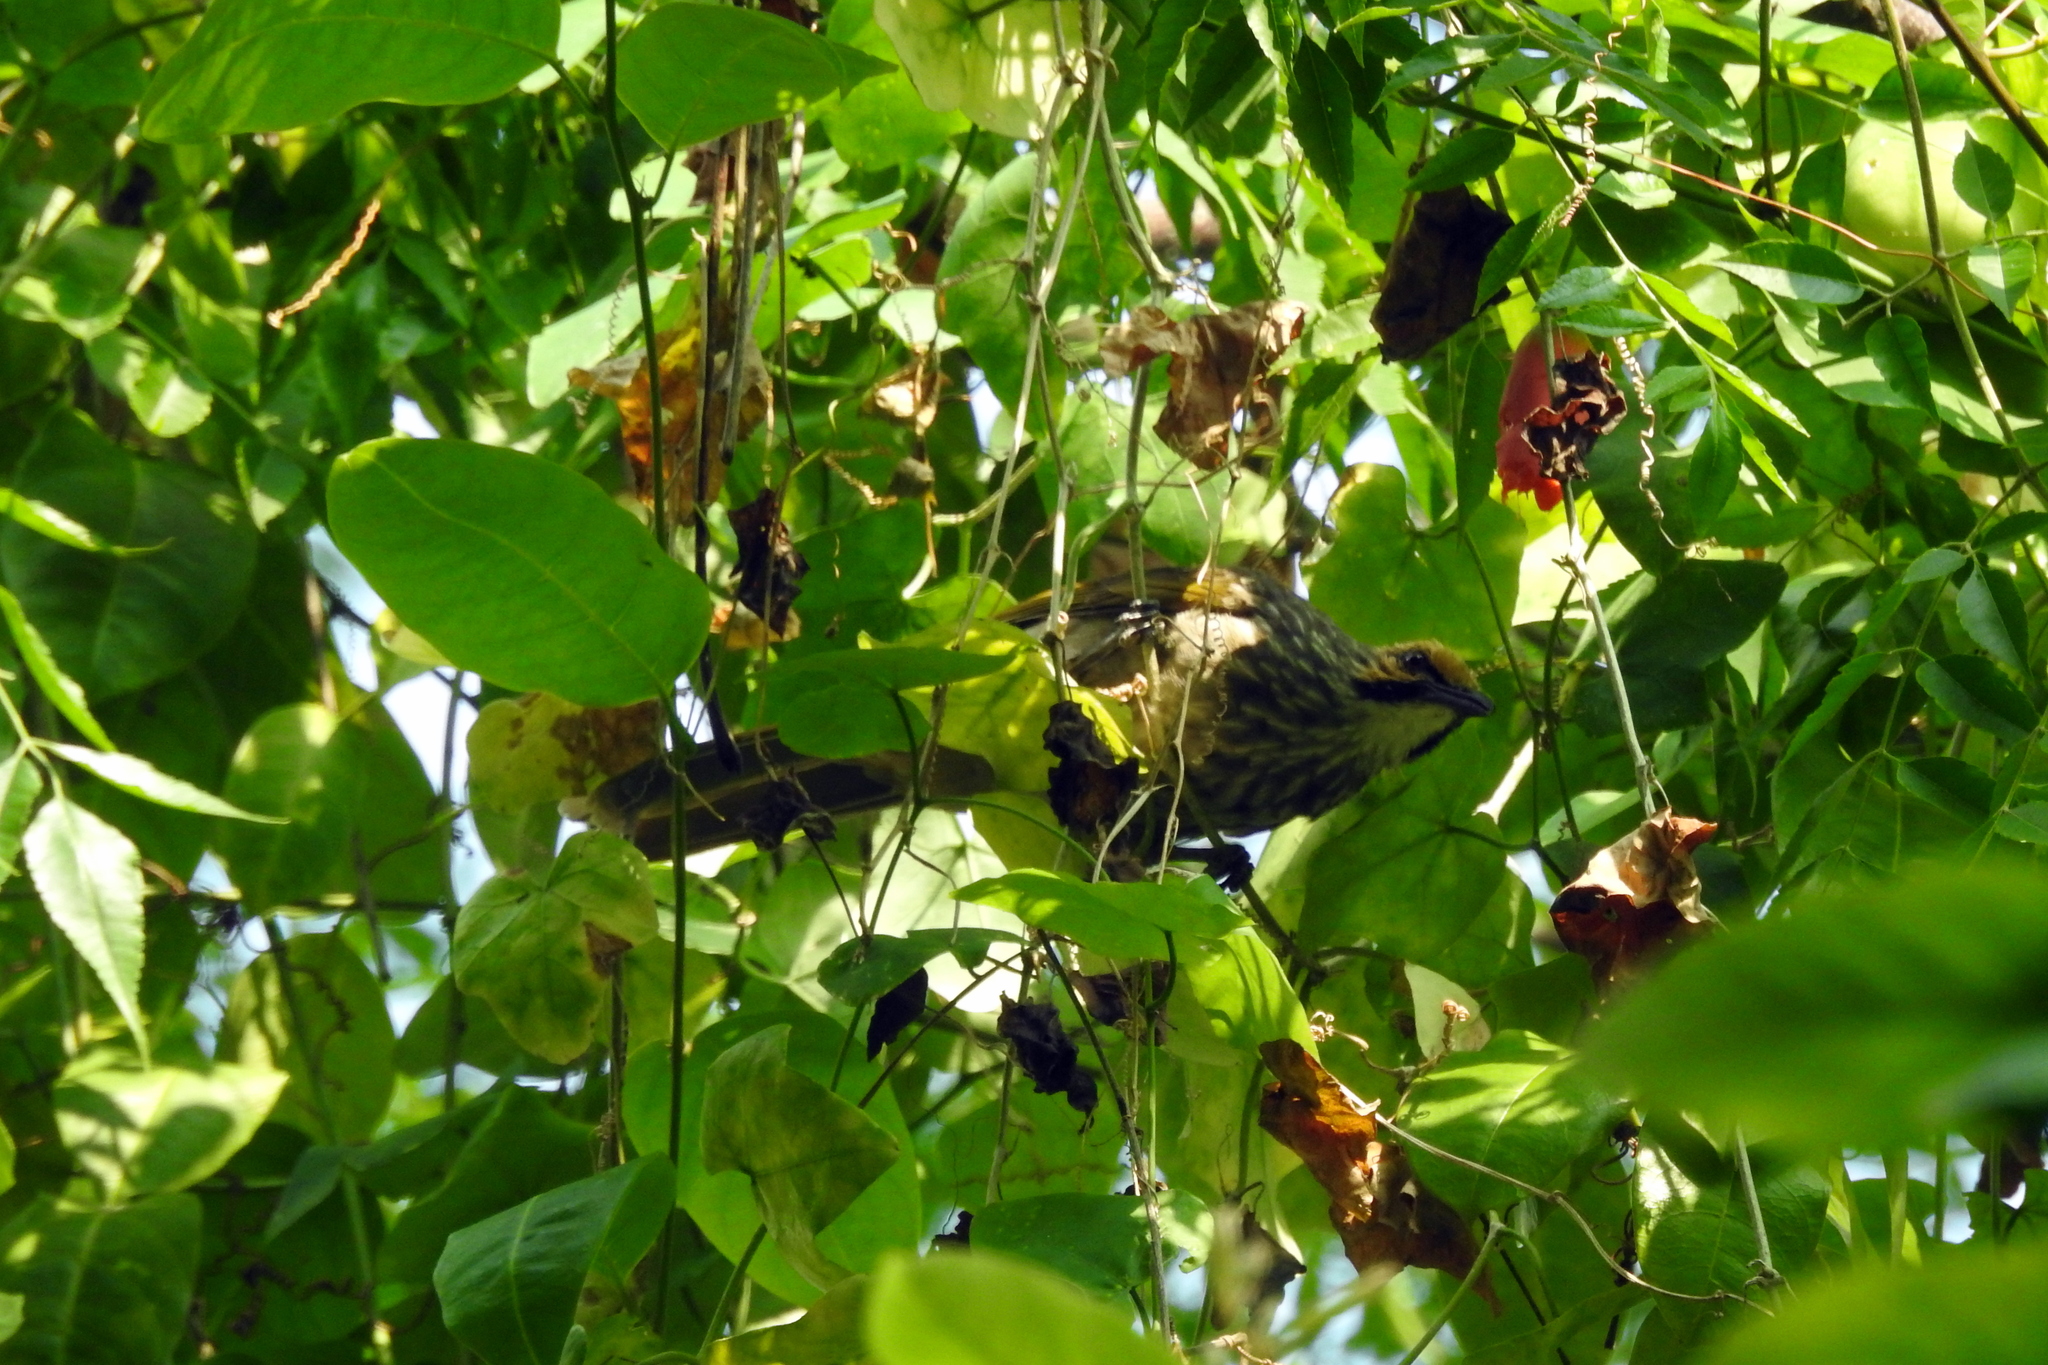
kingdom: Animalia
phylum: Chordata
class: Aves
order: Passeriformes
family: Pycnonotidae
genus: Pycnonotus
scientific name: Pycnonotus zeylanicus
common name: Straw-headed bulbul
